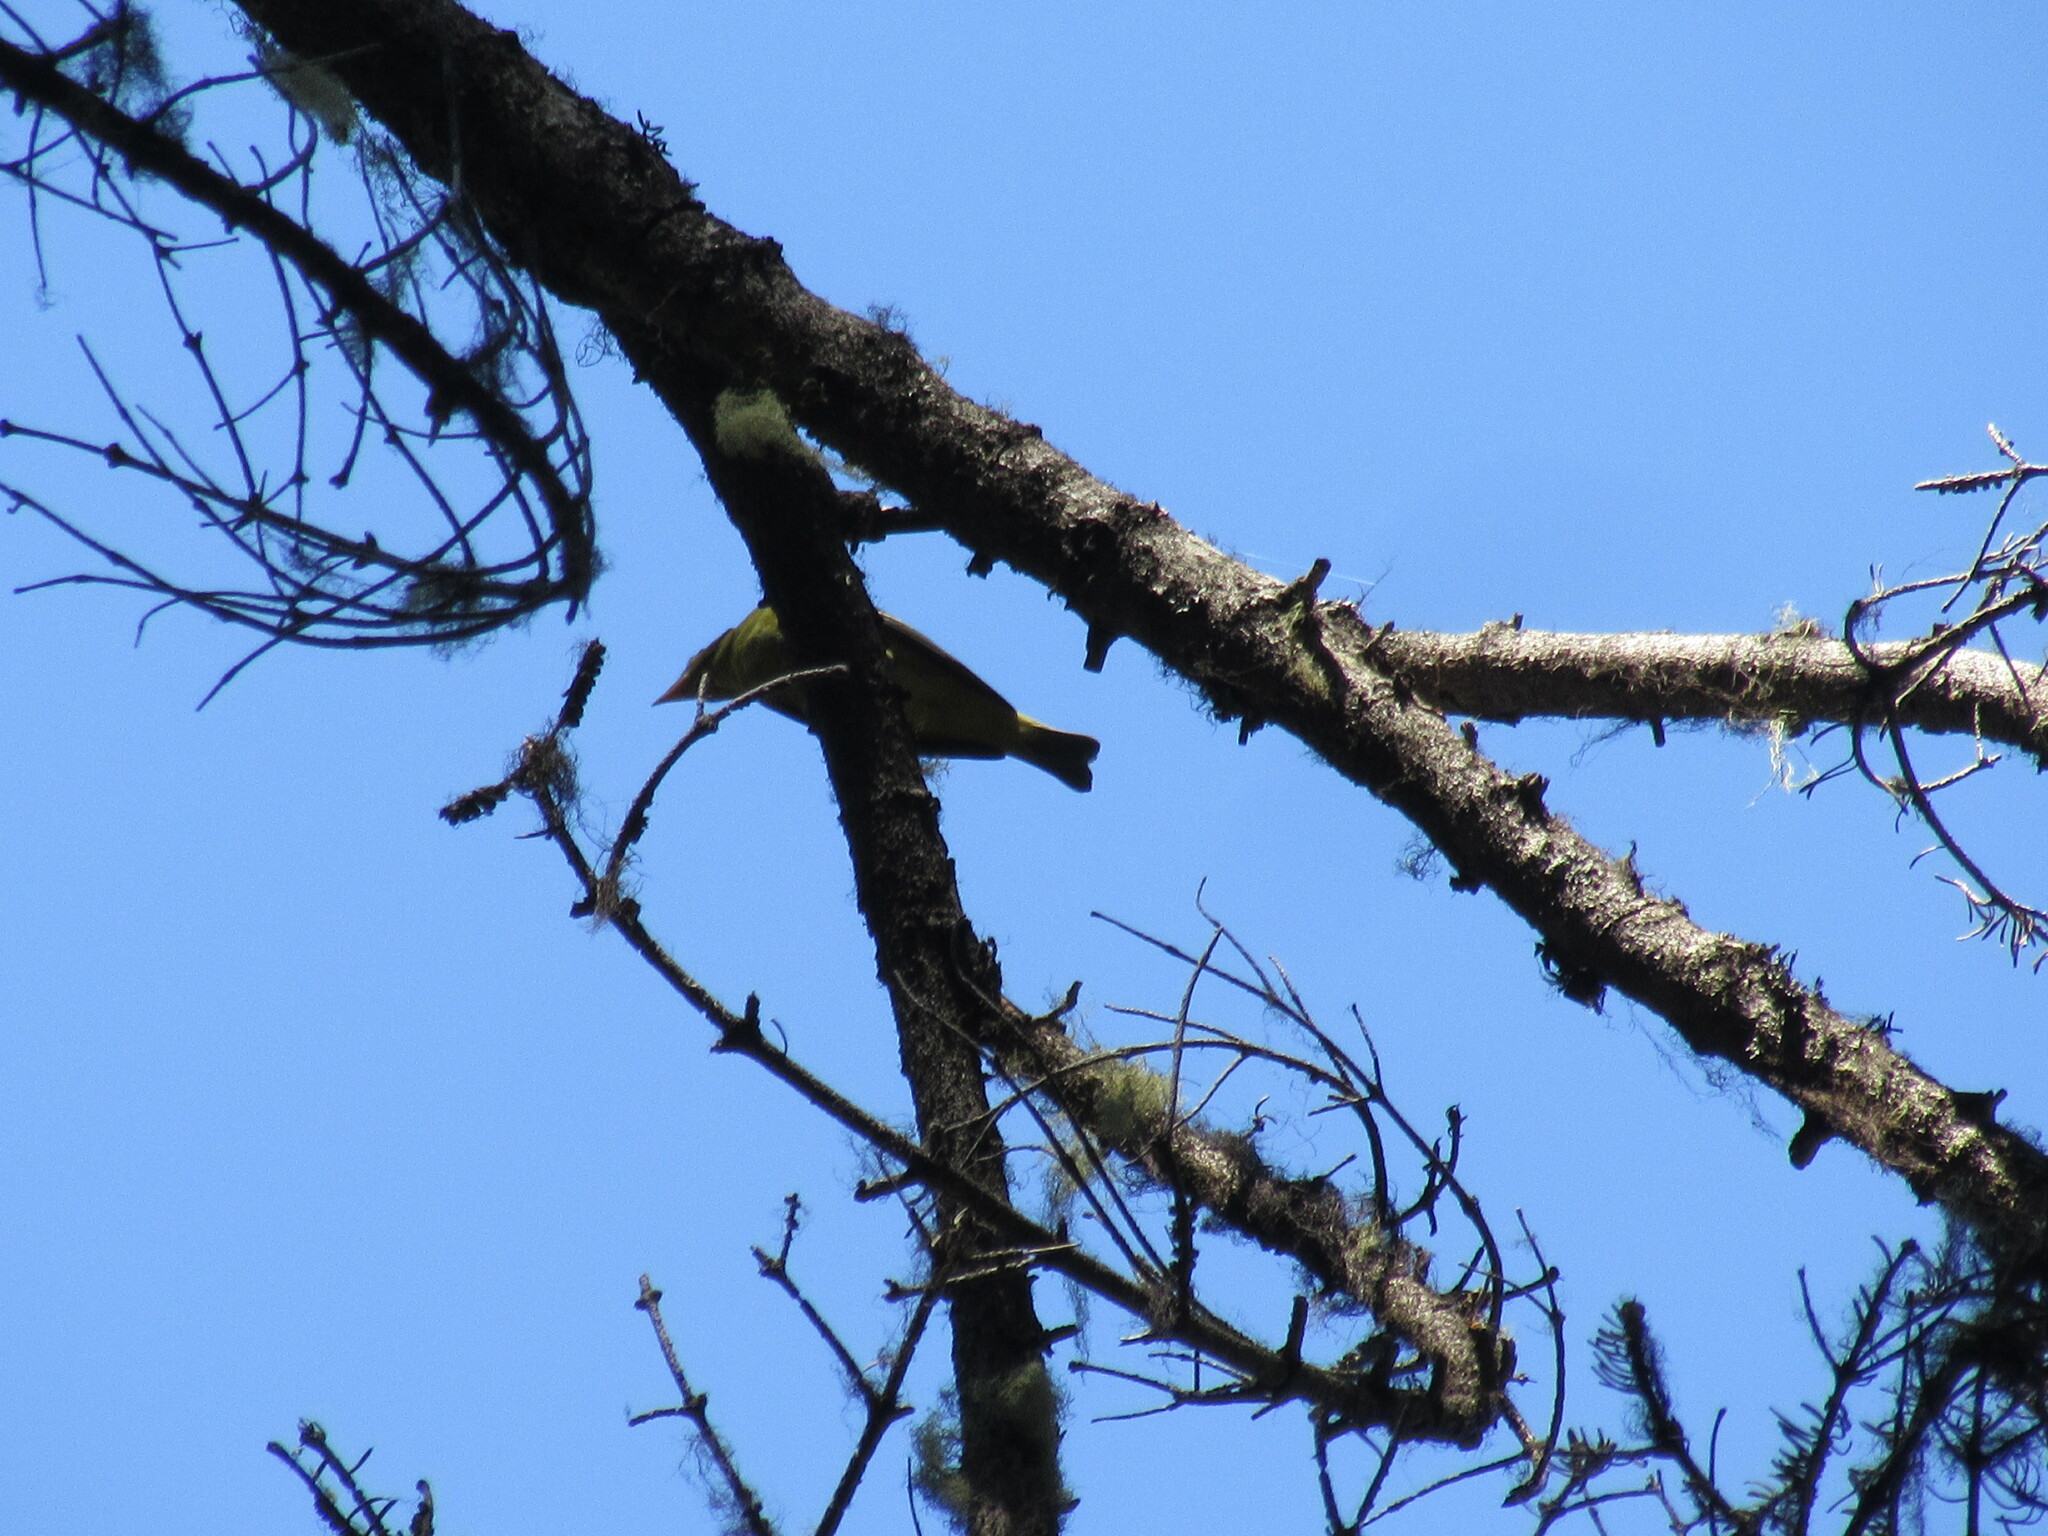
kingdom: Animalia
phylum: Chordata
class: Aves
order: Passeriformes
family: Cardinalidae
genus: Piranga
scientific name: Piranga ludoviciana
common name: Western tanager
